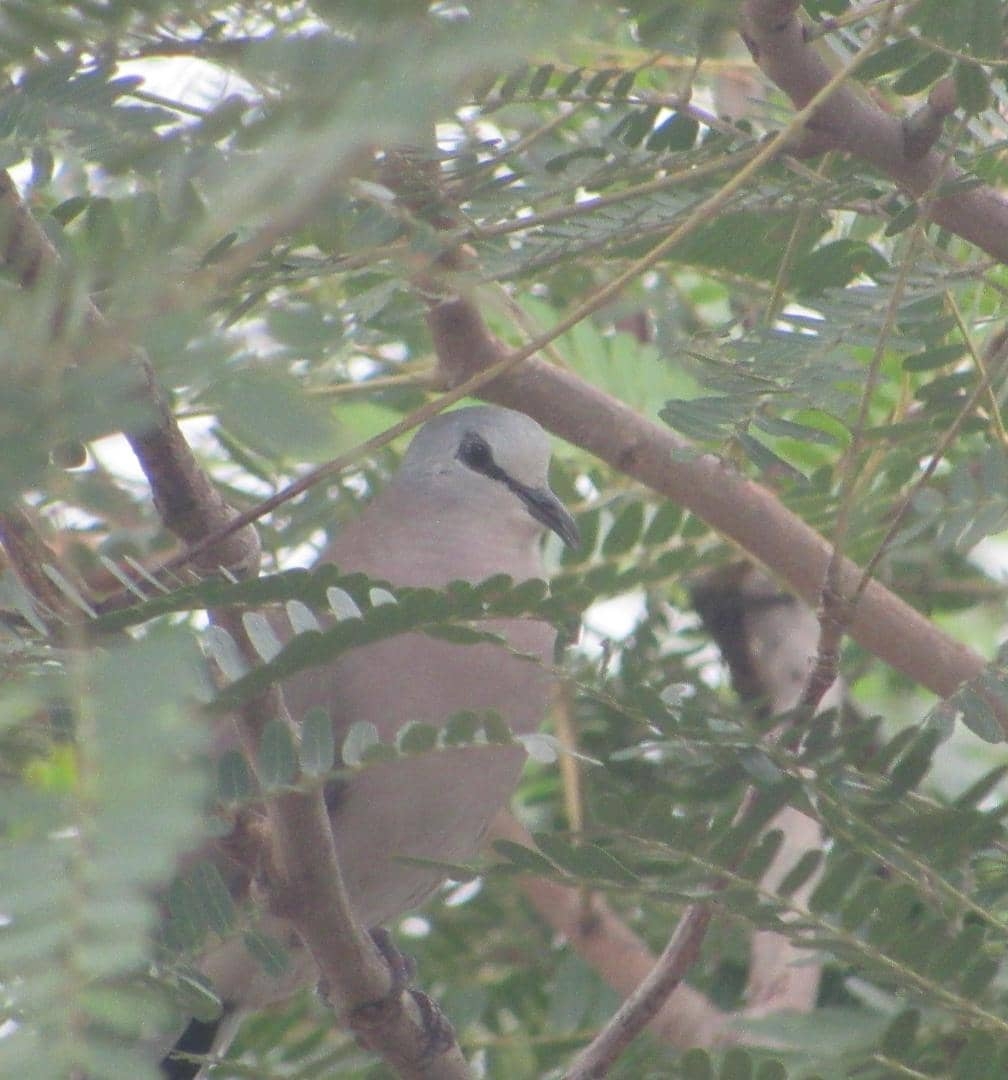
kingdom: Animalia
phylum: Chordata
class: Aves
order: Columbiformes
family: Columbidae
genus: Turtur
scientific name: Turtur abyssinicus
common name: Black-billed wood dove
